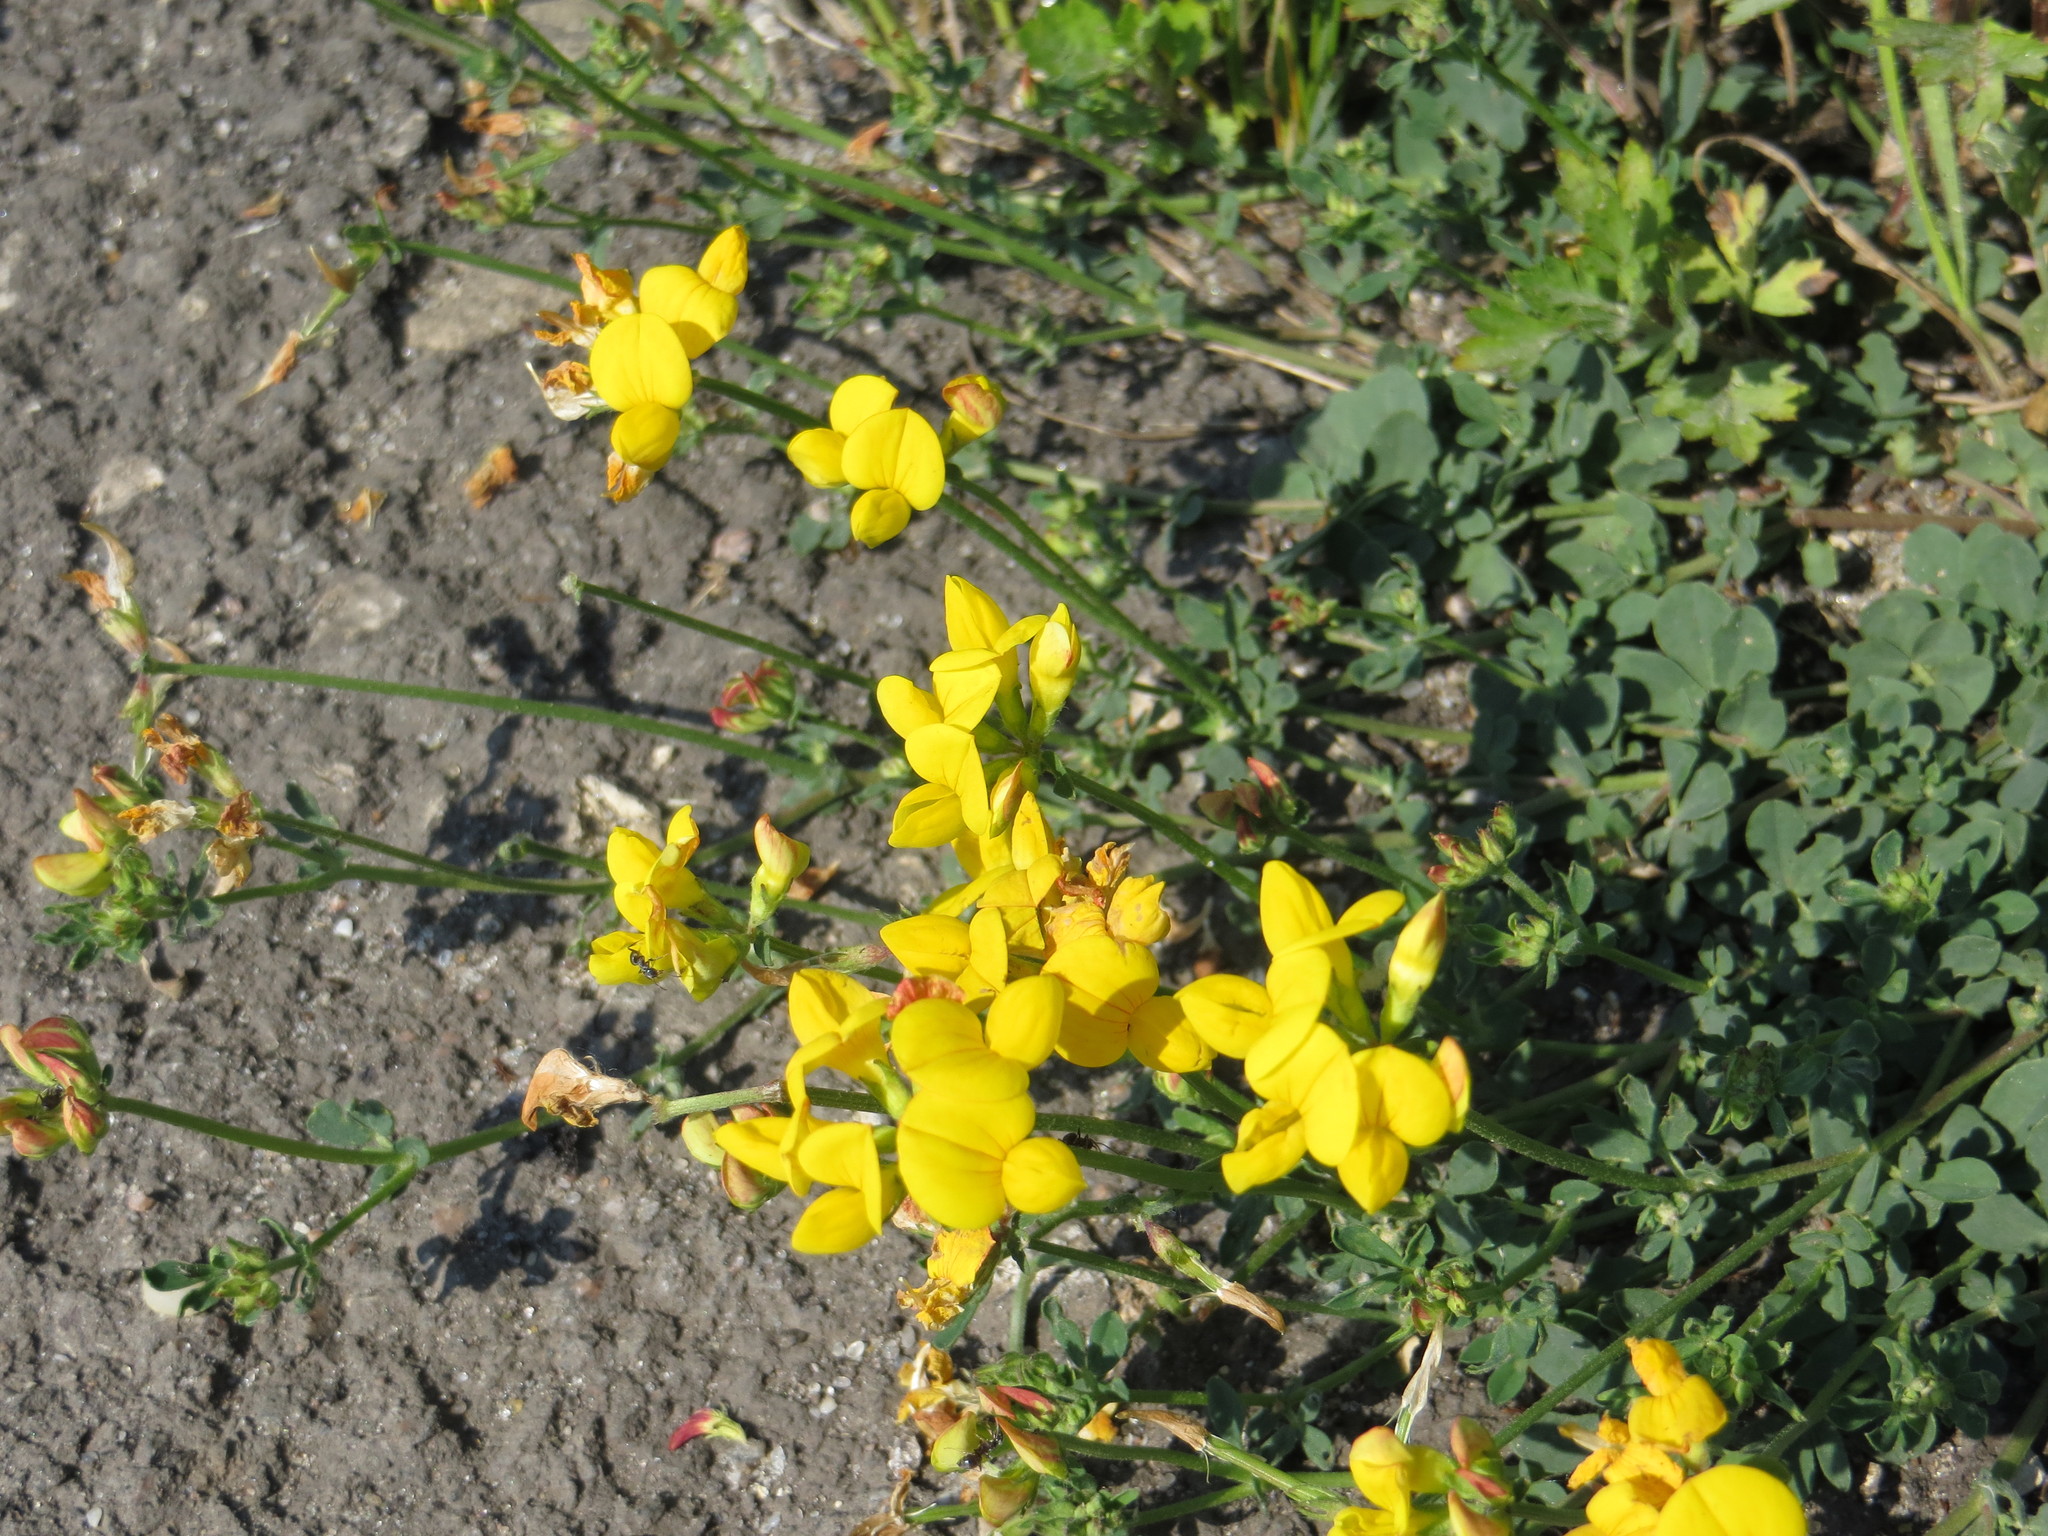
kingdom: Plantae
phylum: Tracheophyta
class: Magnoliopsida
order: Fabales
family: Fabaceae
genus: Lotus
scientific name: Lotus corniculatus
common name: Common bird's-foot-trefoil
